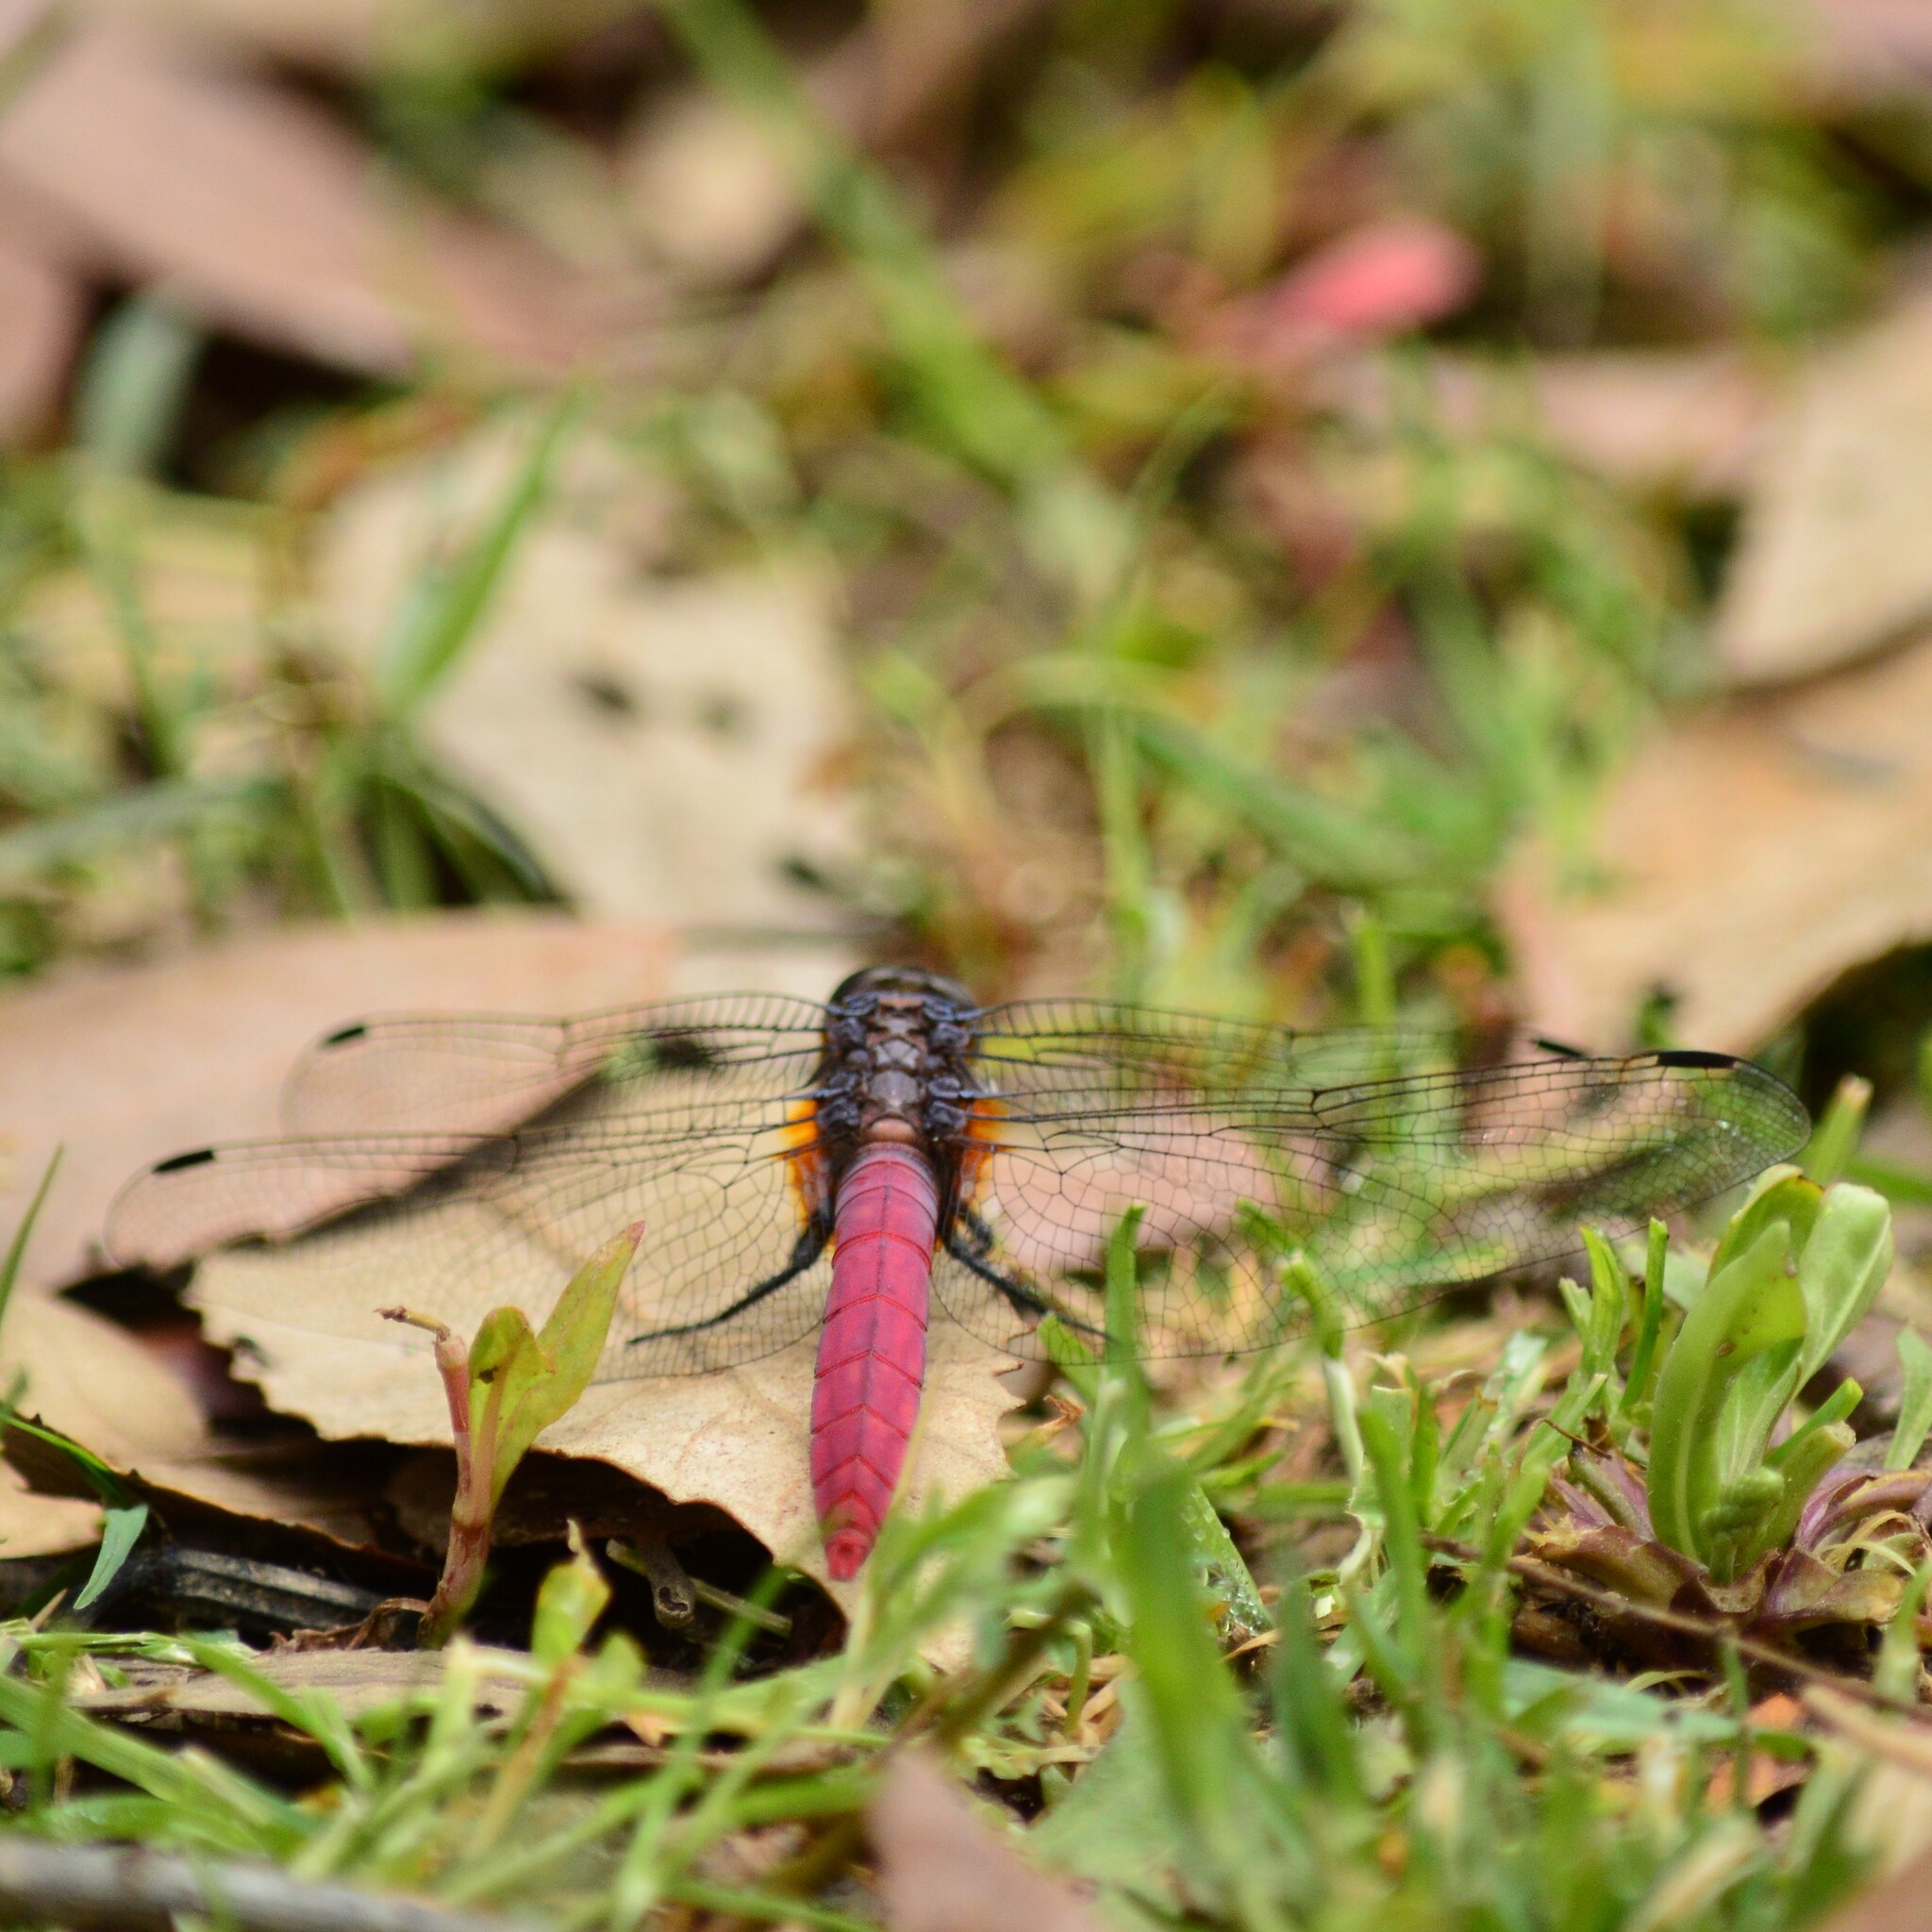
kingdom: Animalia
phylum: Arthropoda
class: Insecta
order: Odonata
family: Libellulidae
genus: Orthetrum
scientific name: Orthetrum pruinosum
